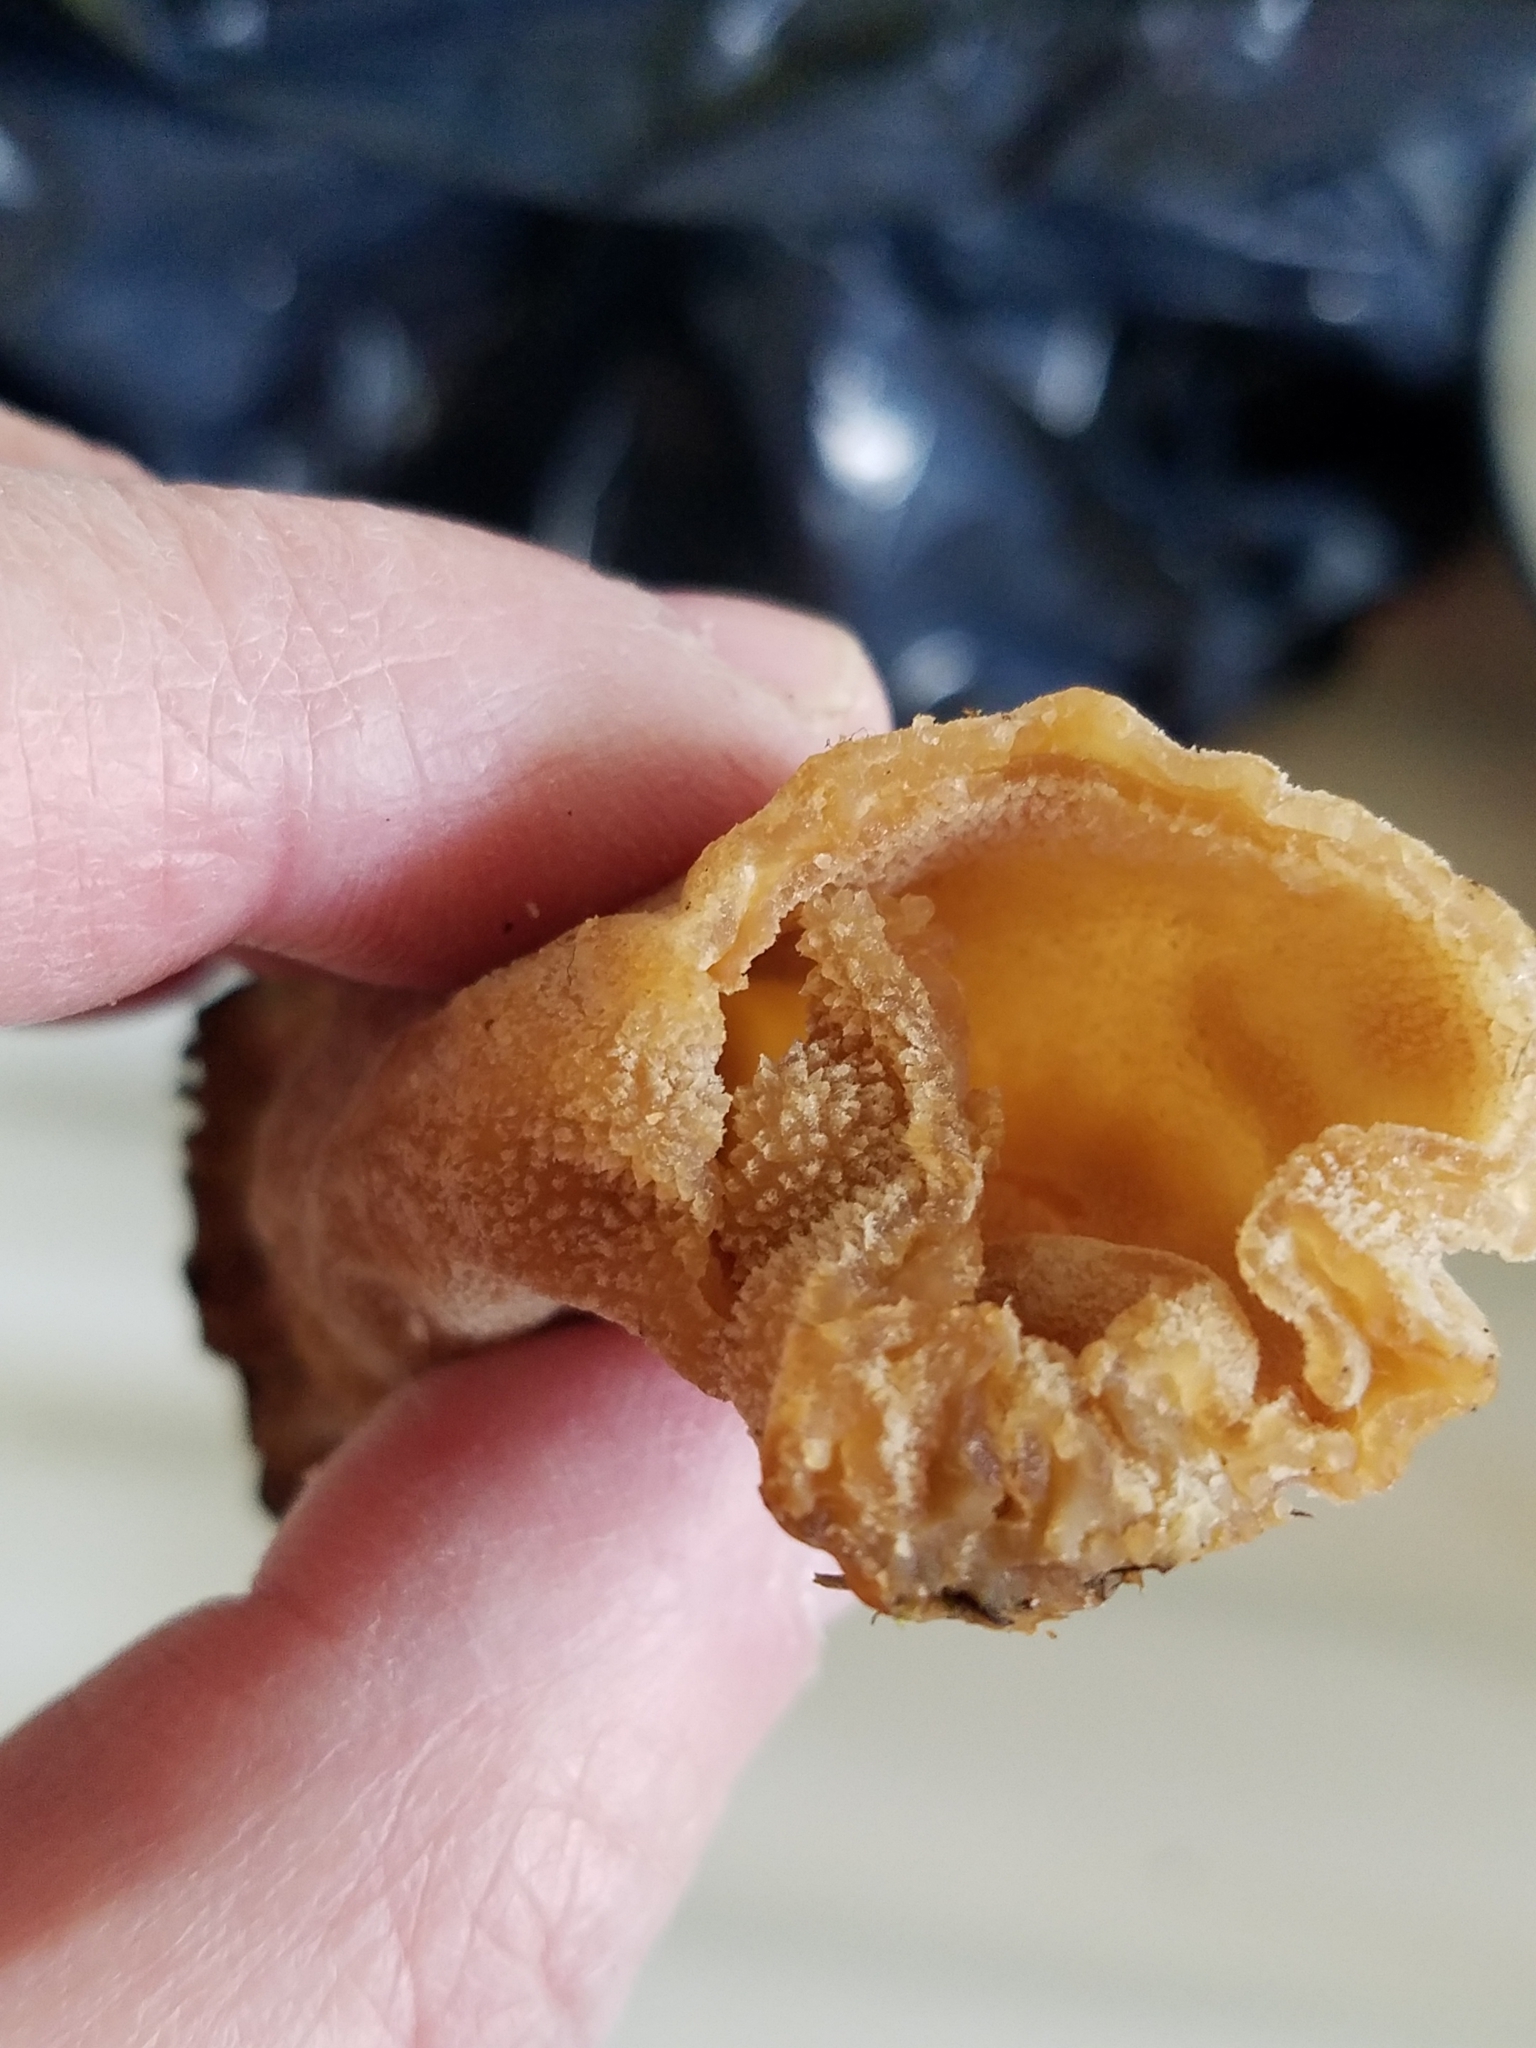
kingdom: Fungi
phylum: Ascomycota
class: Pezizomycetes
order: Pezizales
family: Morchellaceae
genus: Morchella
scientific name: Morchella angusticeps
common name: Black morel
